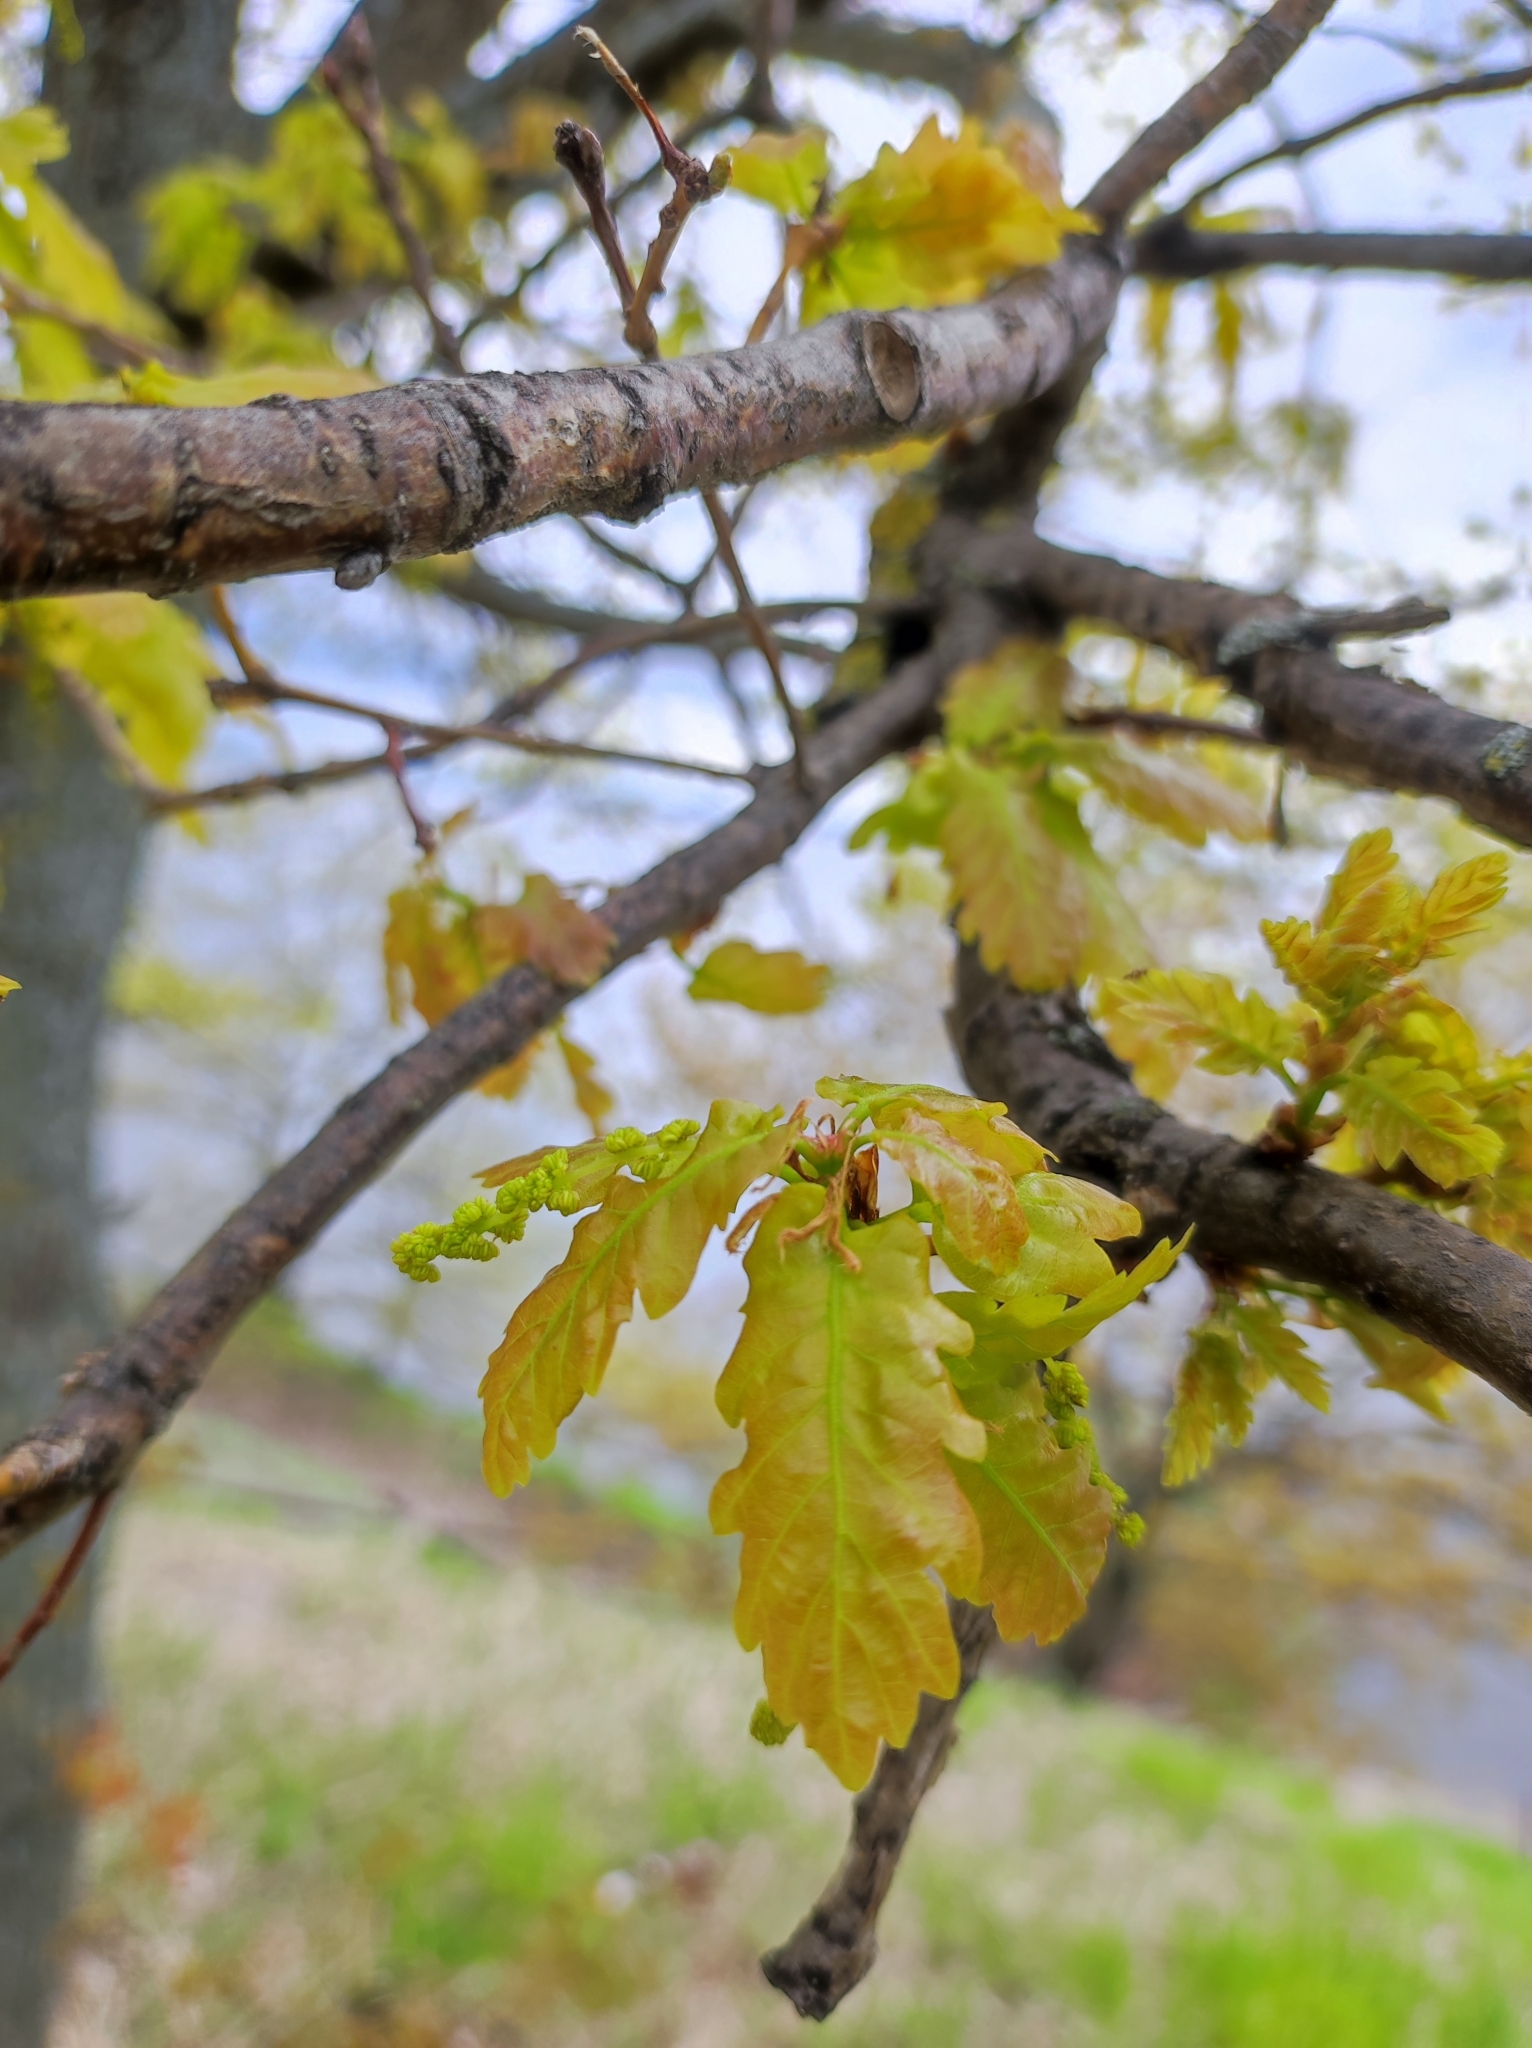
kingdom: Plantae
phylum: Tracheophyta
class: Magnoliopsida
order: Fagales
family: Fagaceae
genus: Quercus
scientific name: Quercus robur
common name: Pedunculate oak
